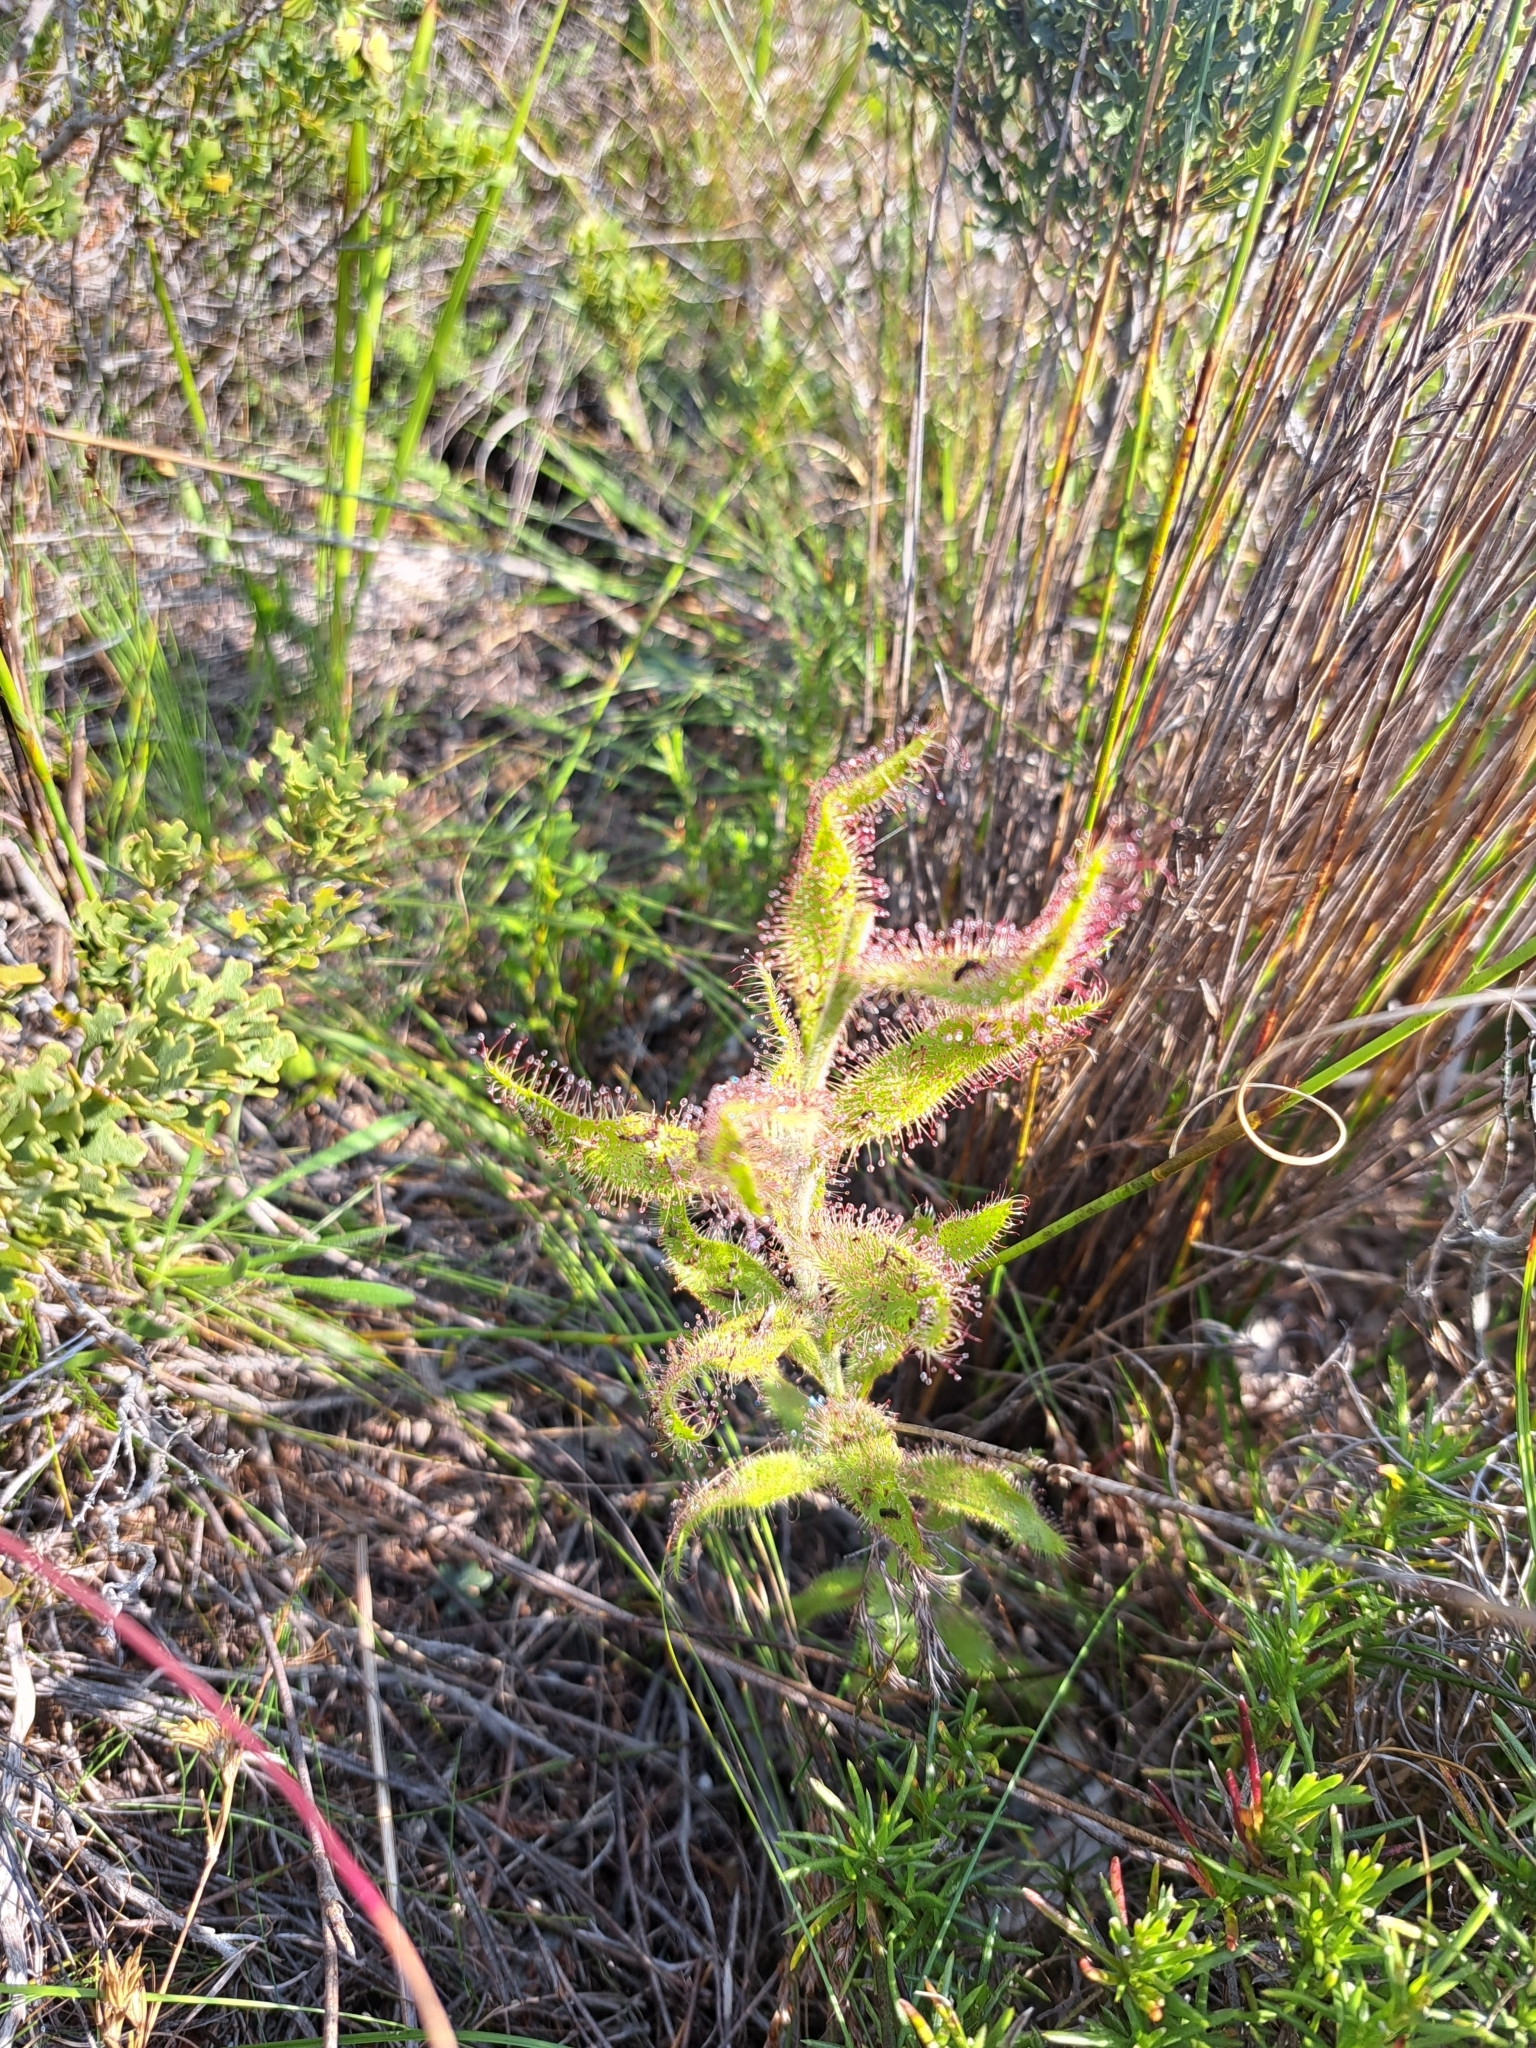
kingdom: Plantae
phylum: Tracheophyta
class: Magnoliopsida
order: Caryophyllales
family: Droseraceae
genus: Drosera
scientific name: Drosera cistiflora
